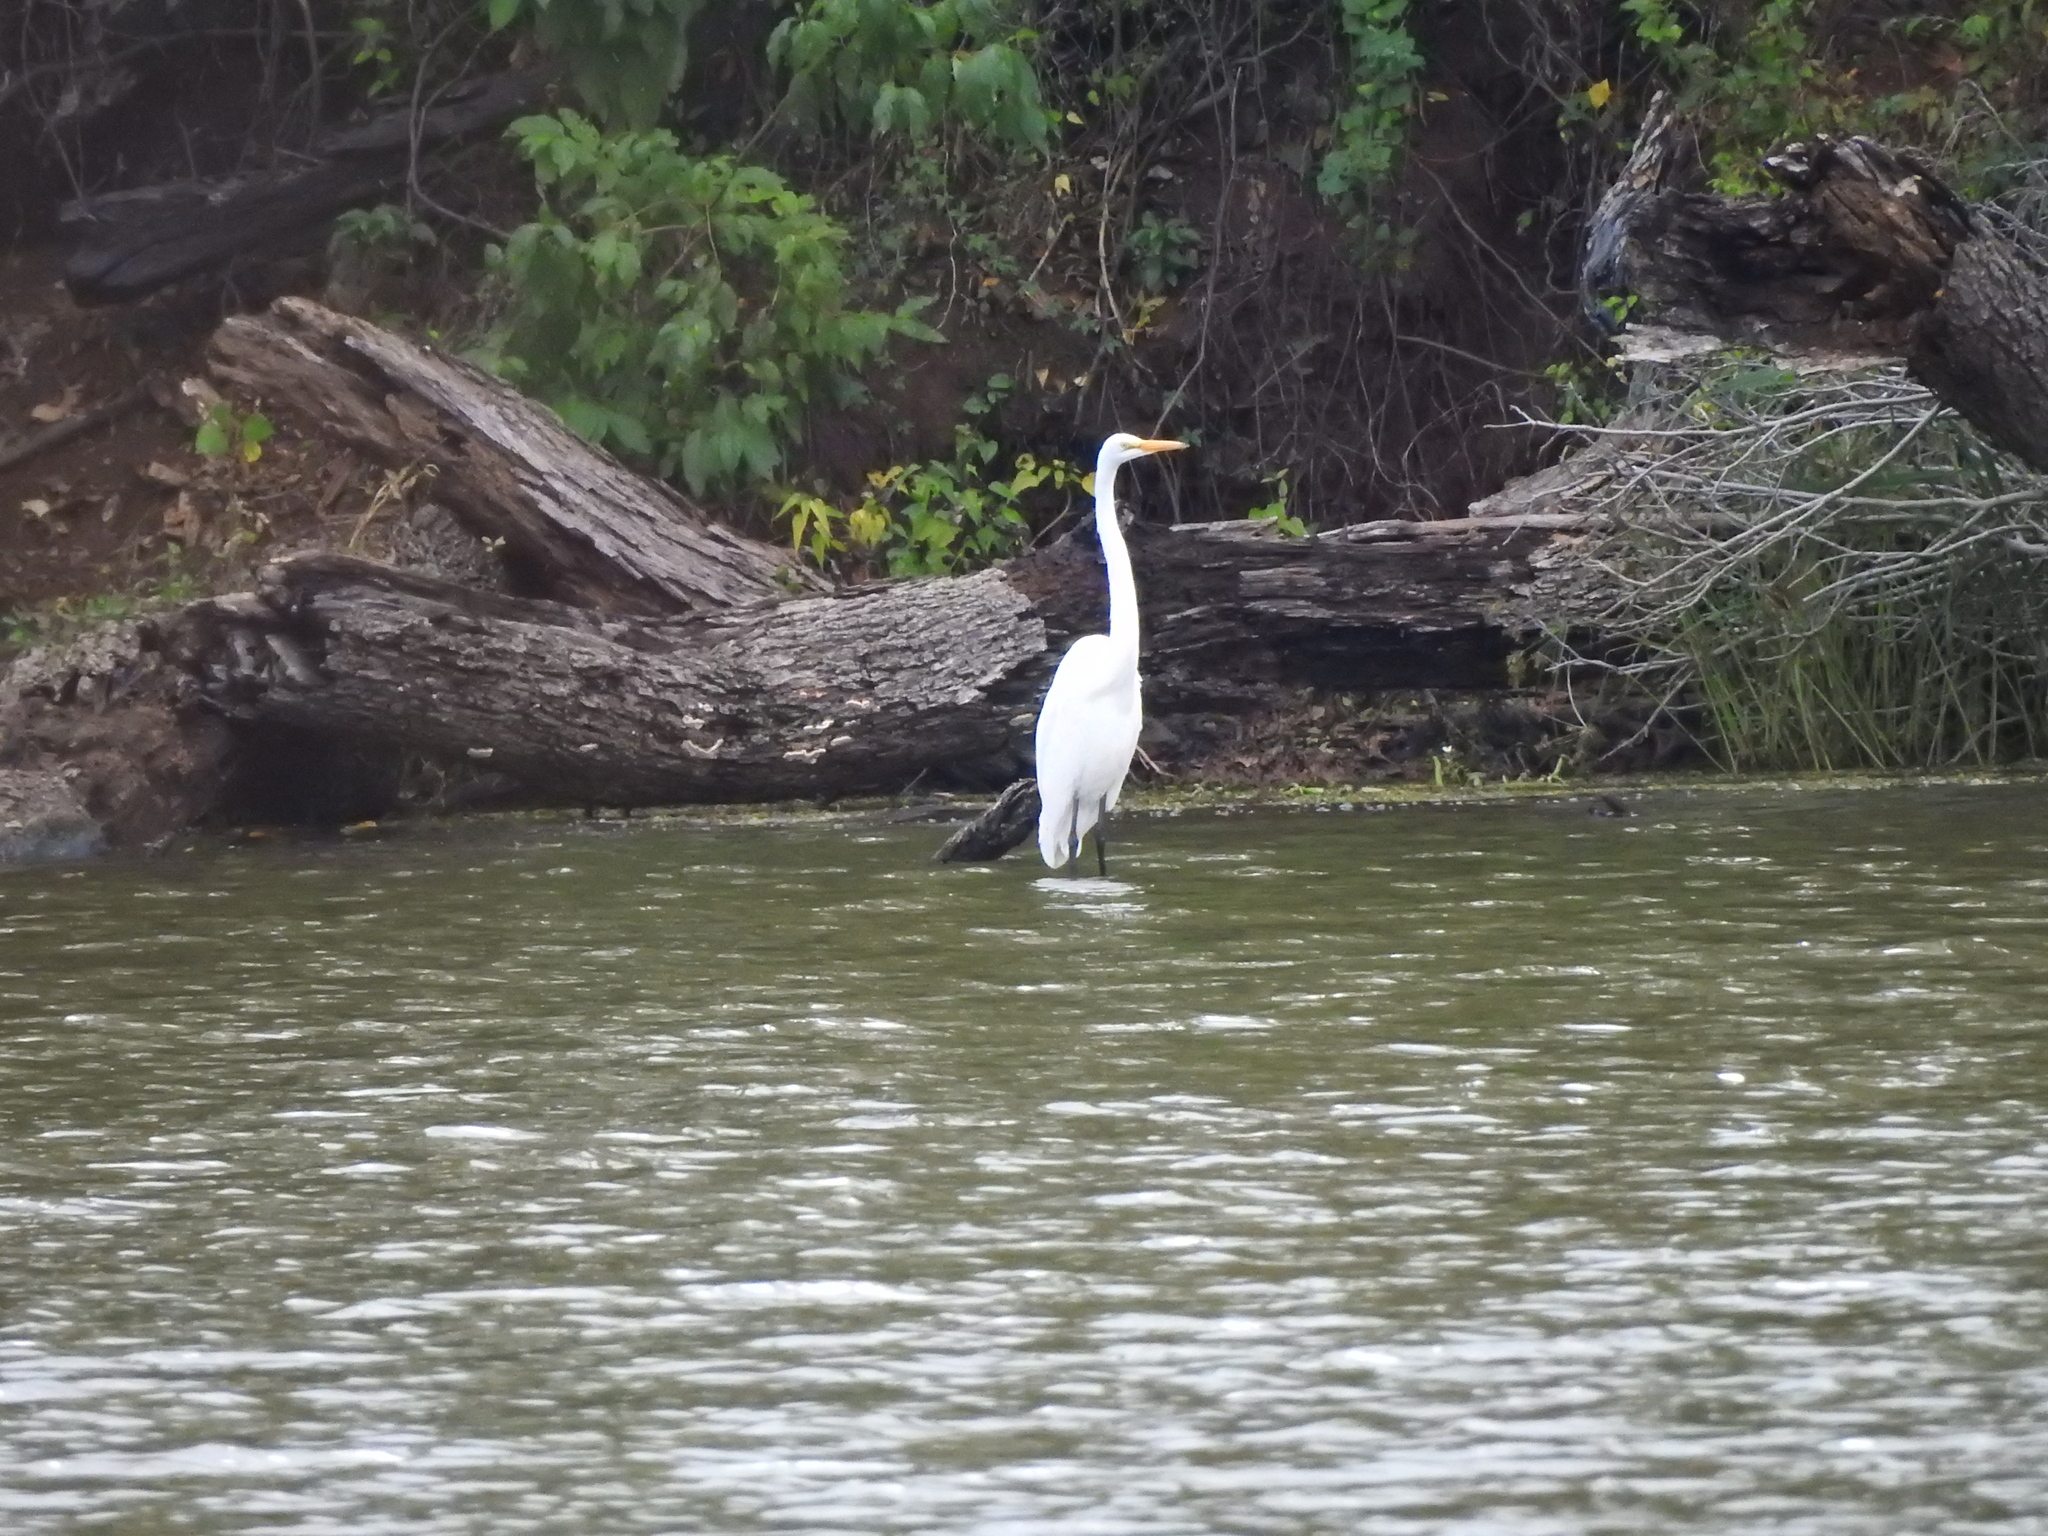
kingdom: Animalia
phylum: Chordata
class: Aves
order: Pelecaniformes
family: Ardeidae
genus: Ardea
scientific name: Ardea alba
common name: Great egret
